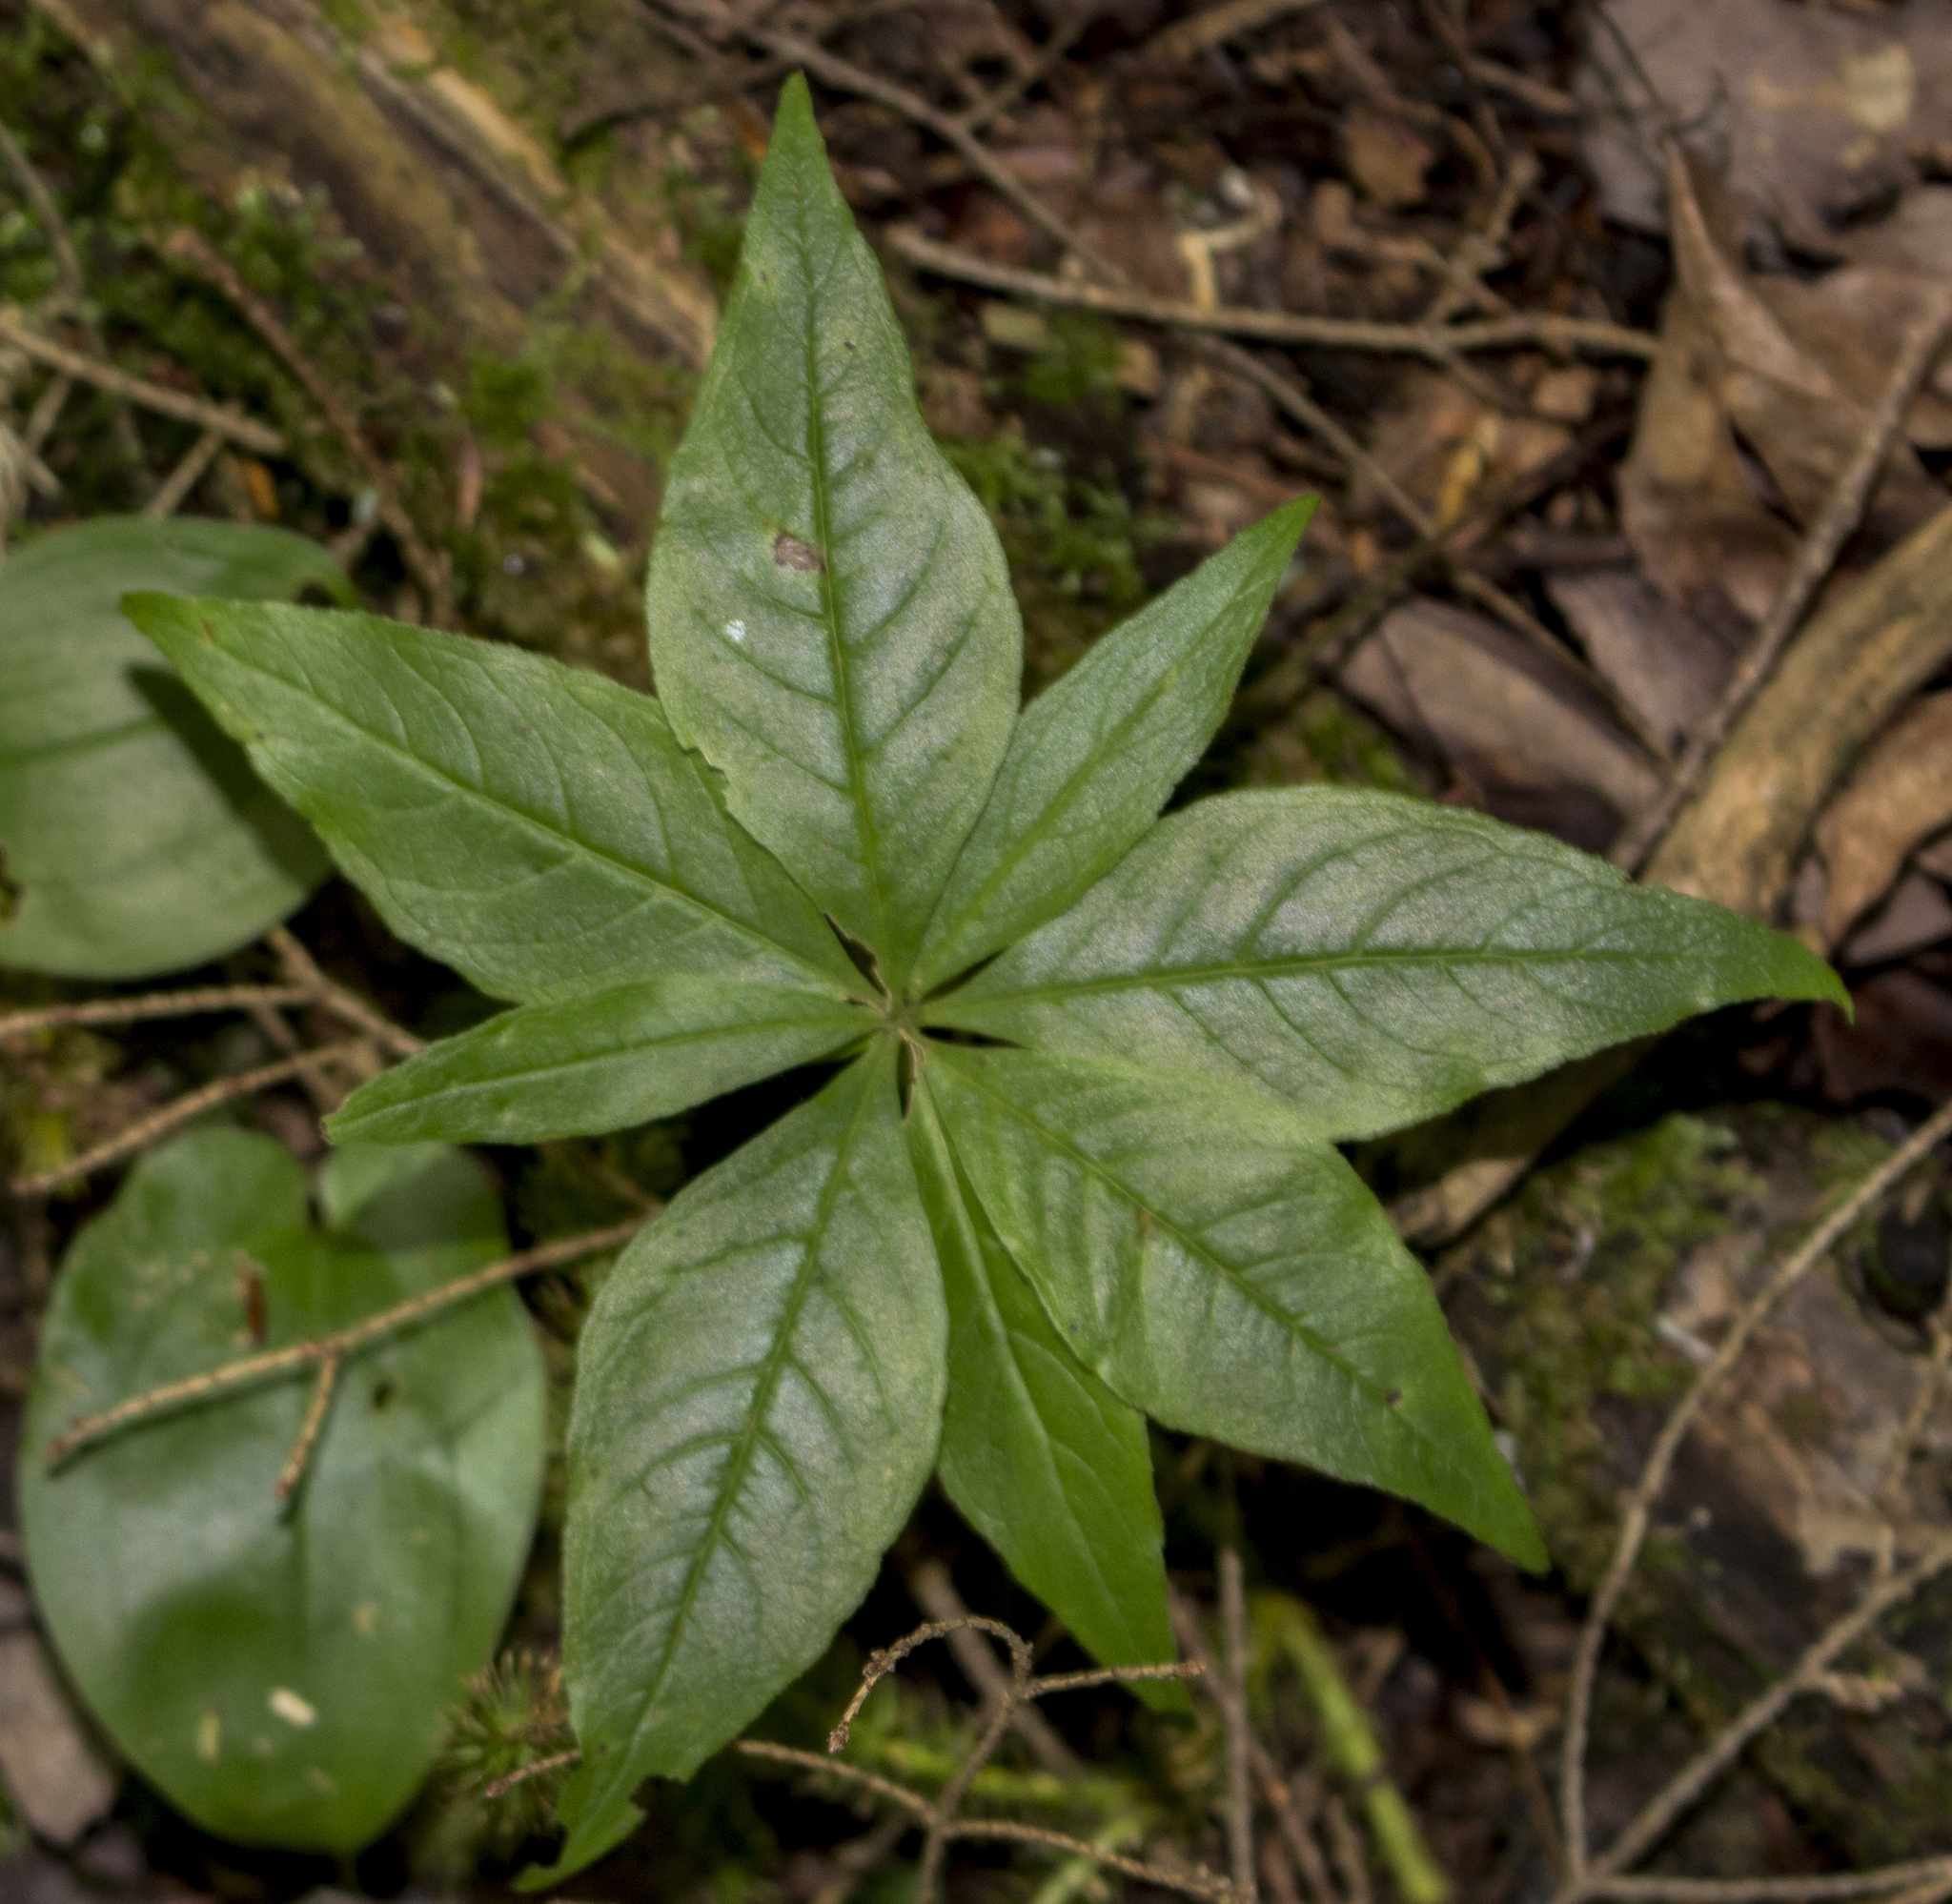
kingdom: Plantae
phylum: Tracheophyta
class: Magnoliopsida
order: Ericales
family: Primulaceae
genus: Lysimachia
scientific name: Lysimachia borealis
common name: American starflower
